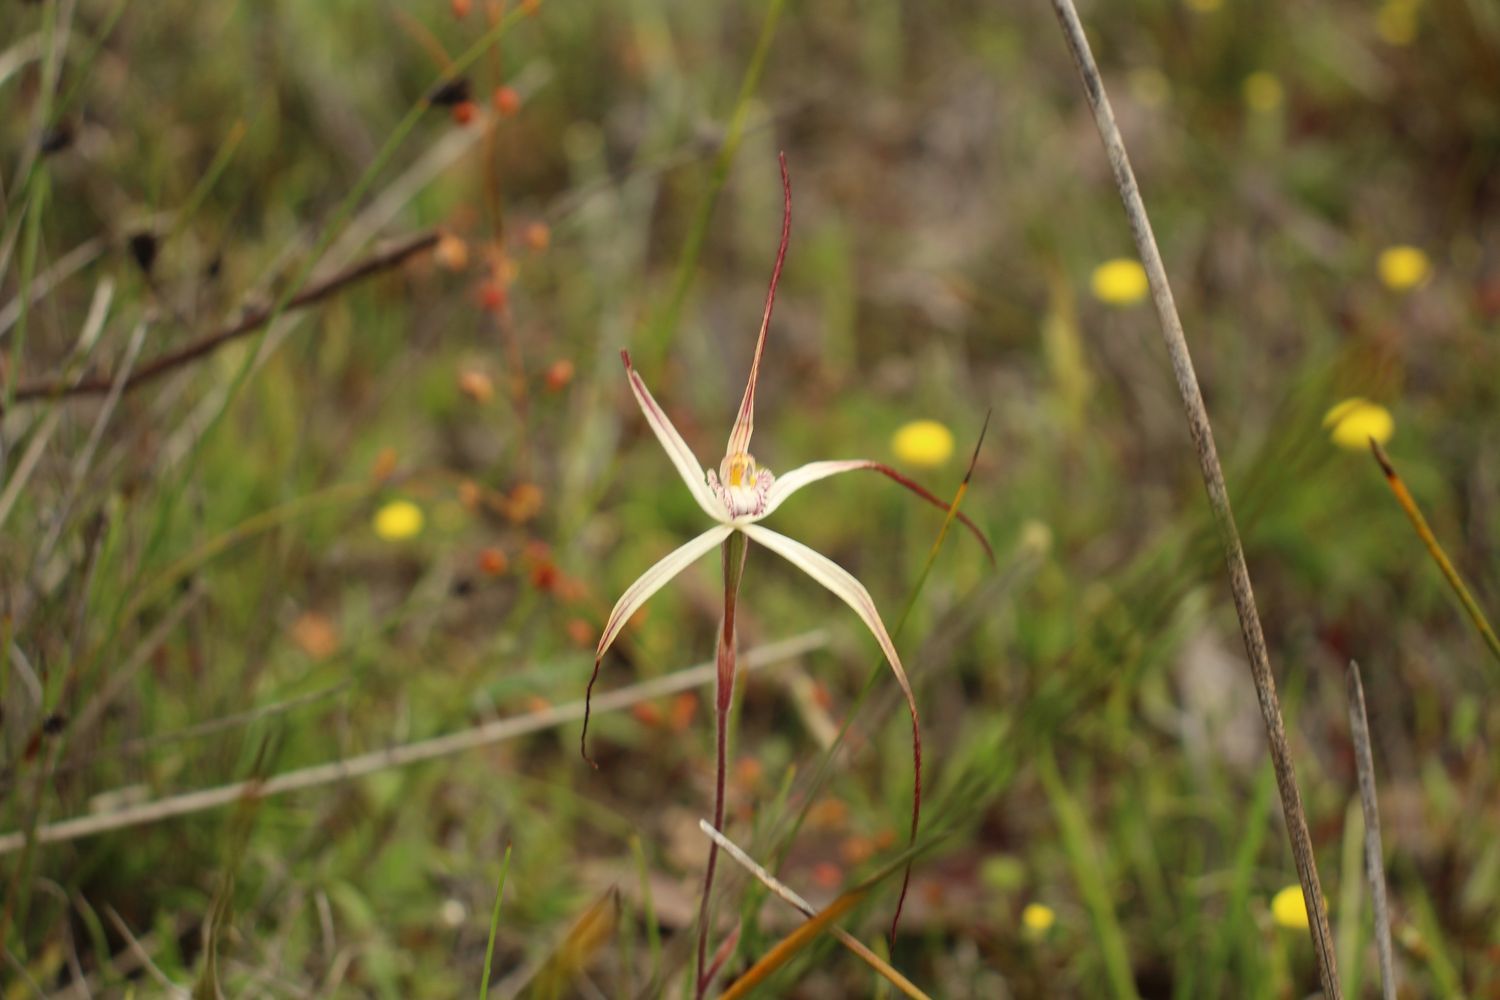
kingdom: Plantae
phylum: Tracheophyta
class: Liliopsida
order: Asparagales
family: Orchidaceae
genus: Caladenia
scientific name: Caladenia polychroma
